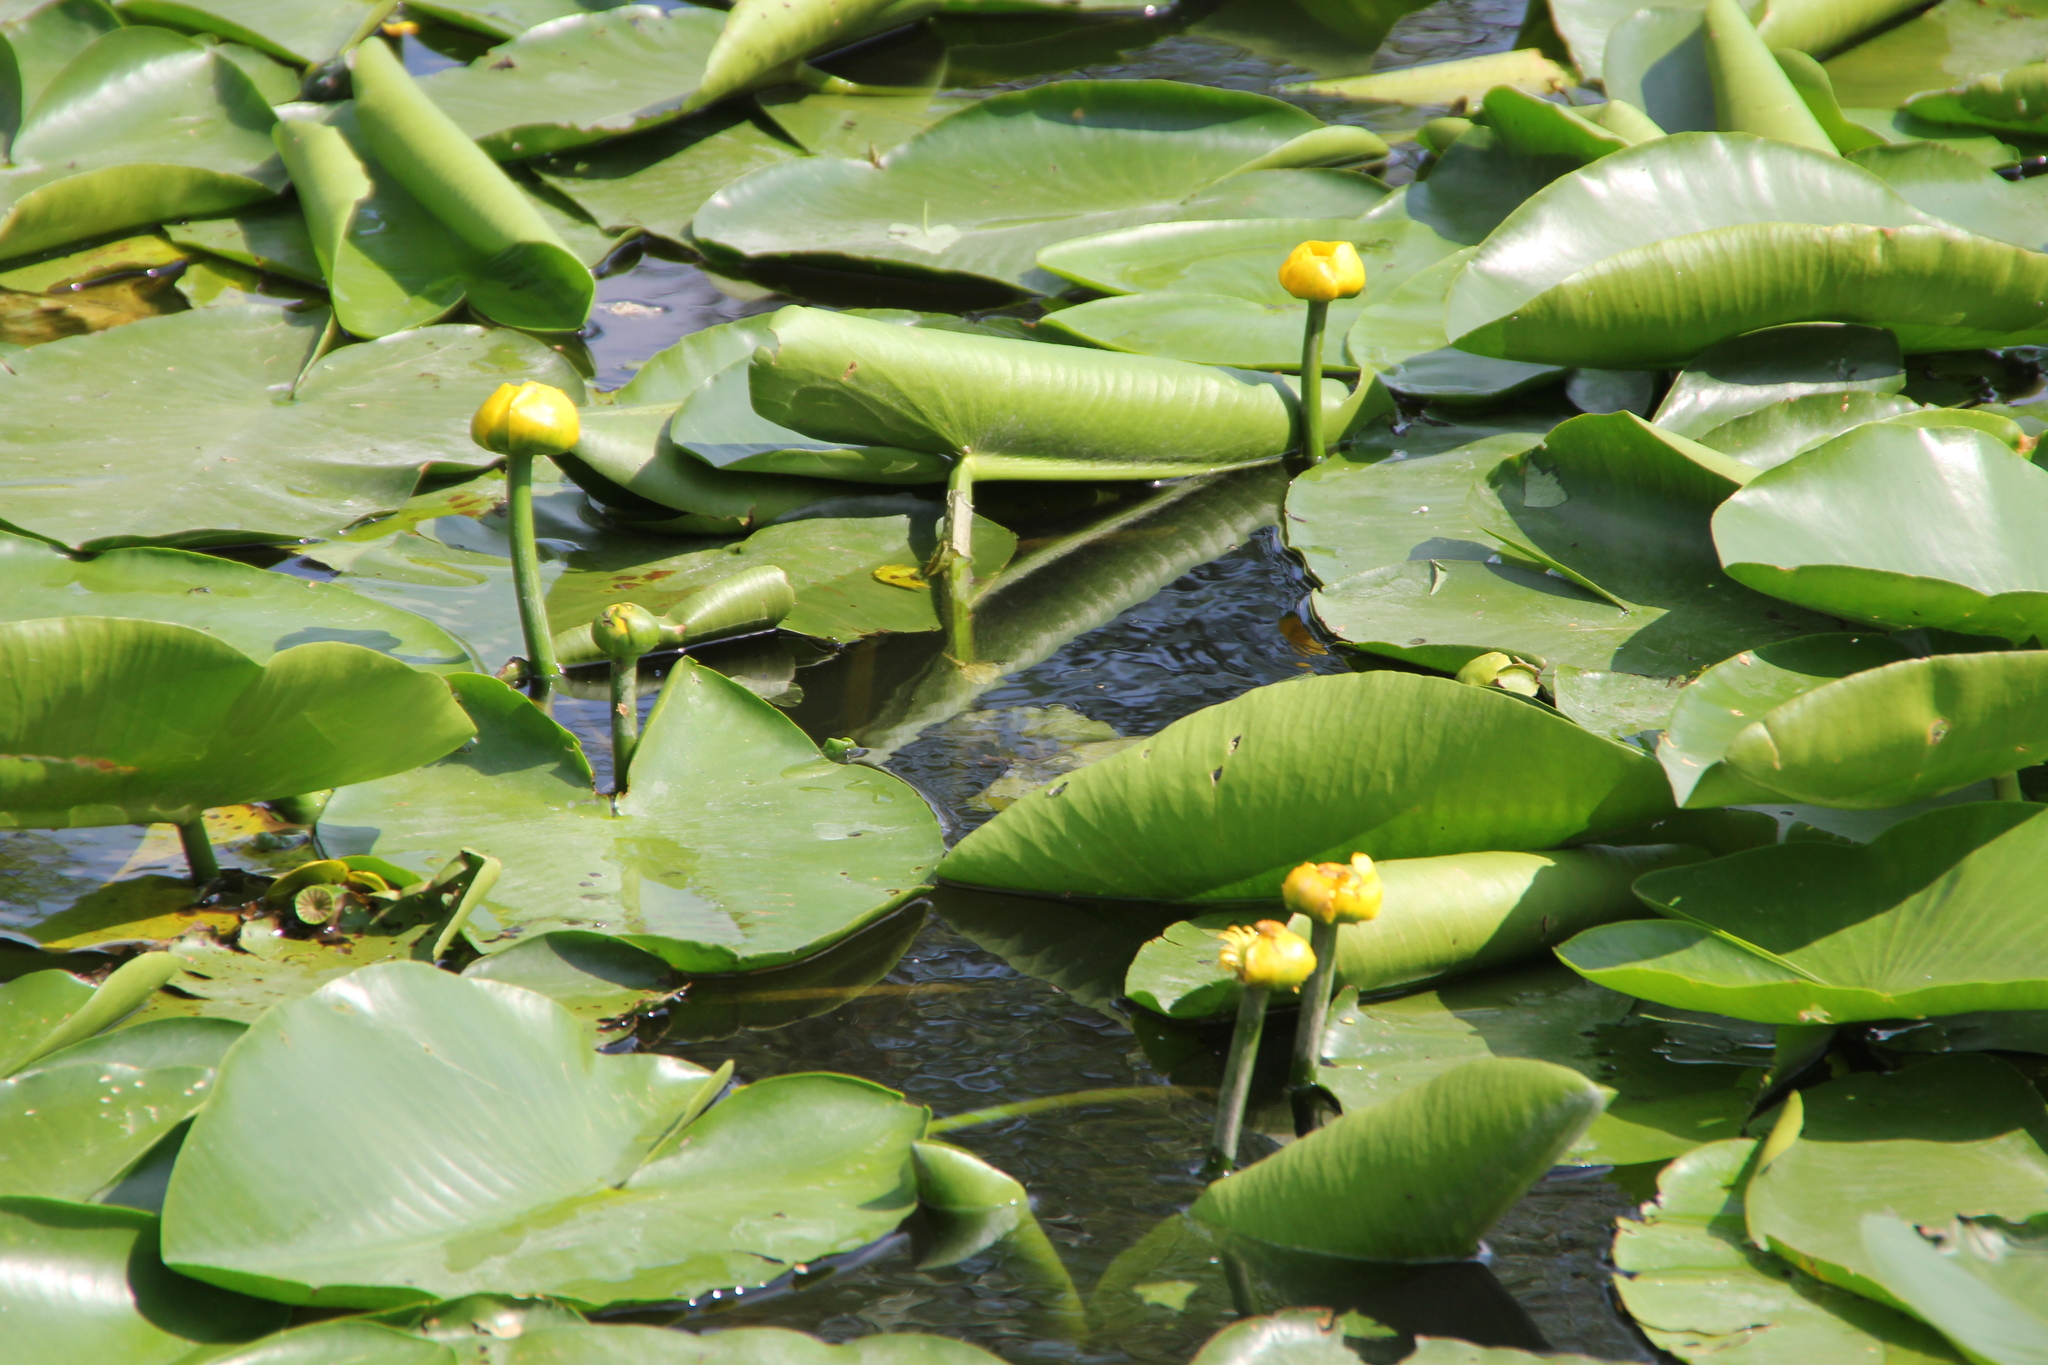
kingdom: Plantae
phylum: Tracheophyta
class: Magnoliopsida
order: Nymphaeales
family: Nymphaeaceae
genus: Nuphar
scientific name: Nuphar lutea
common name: Yellow water-lily
